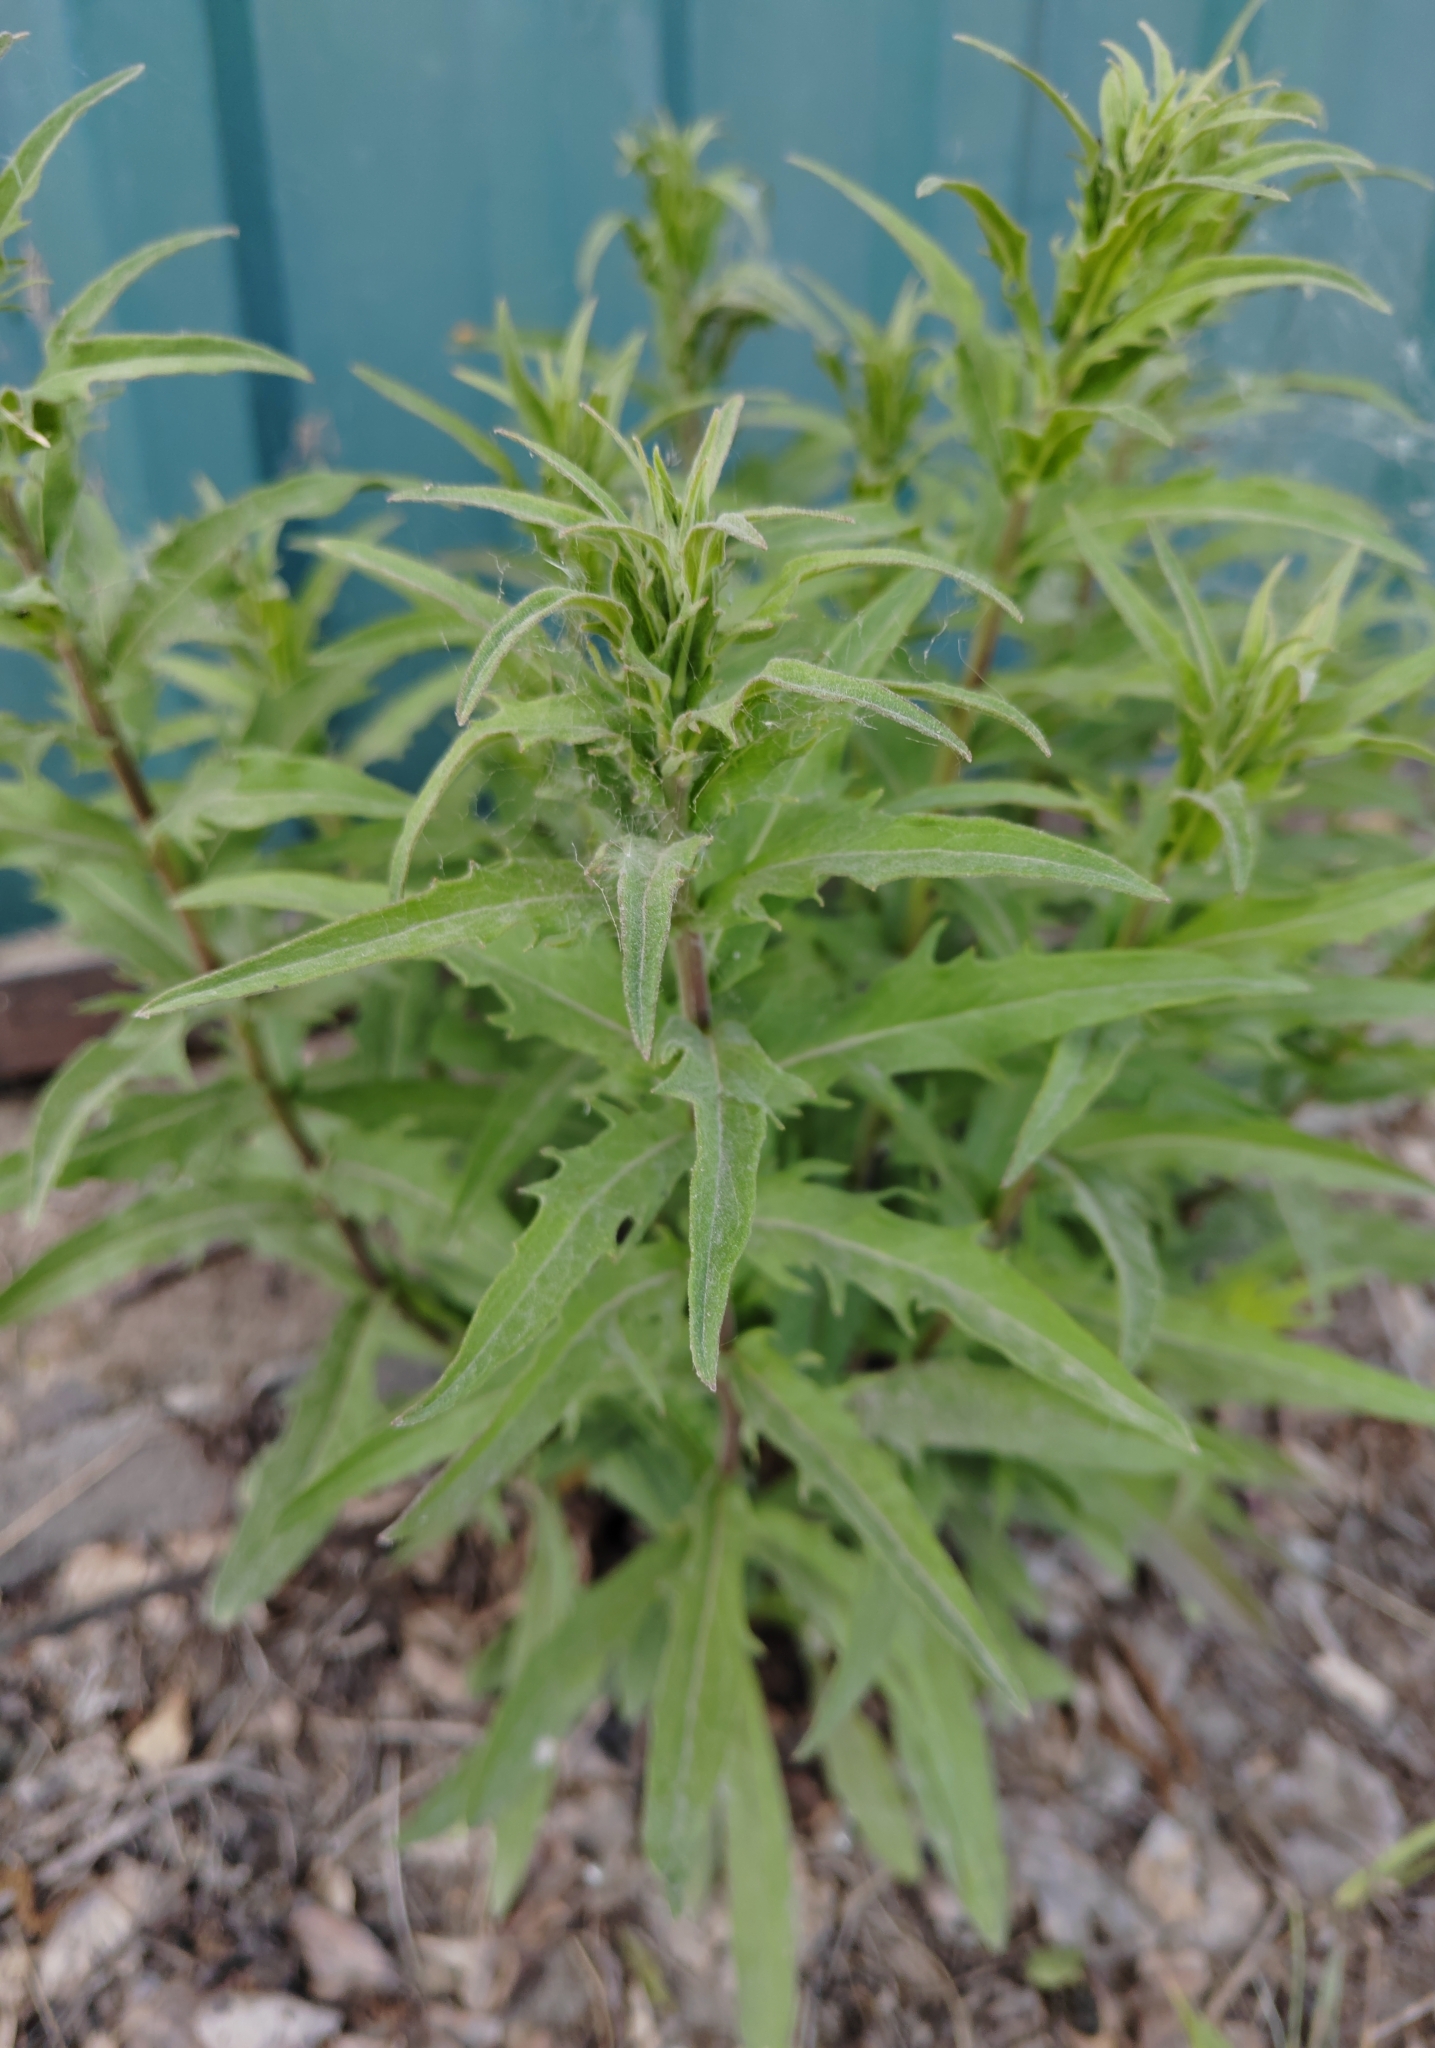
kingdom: Plantae
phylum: Tracheophyta
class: Magnoliopsida
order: Asterales
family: Asteraceae
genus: Hieracium
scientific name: Hieracium umbellatum
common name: Northern hawkweed
